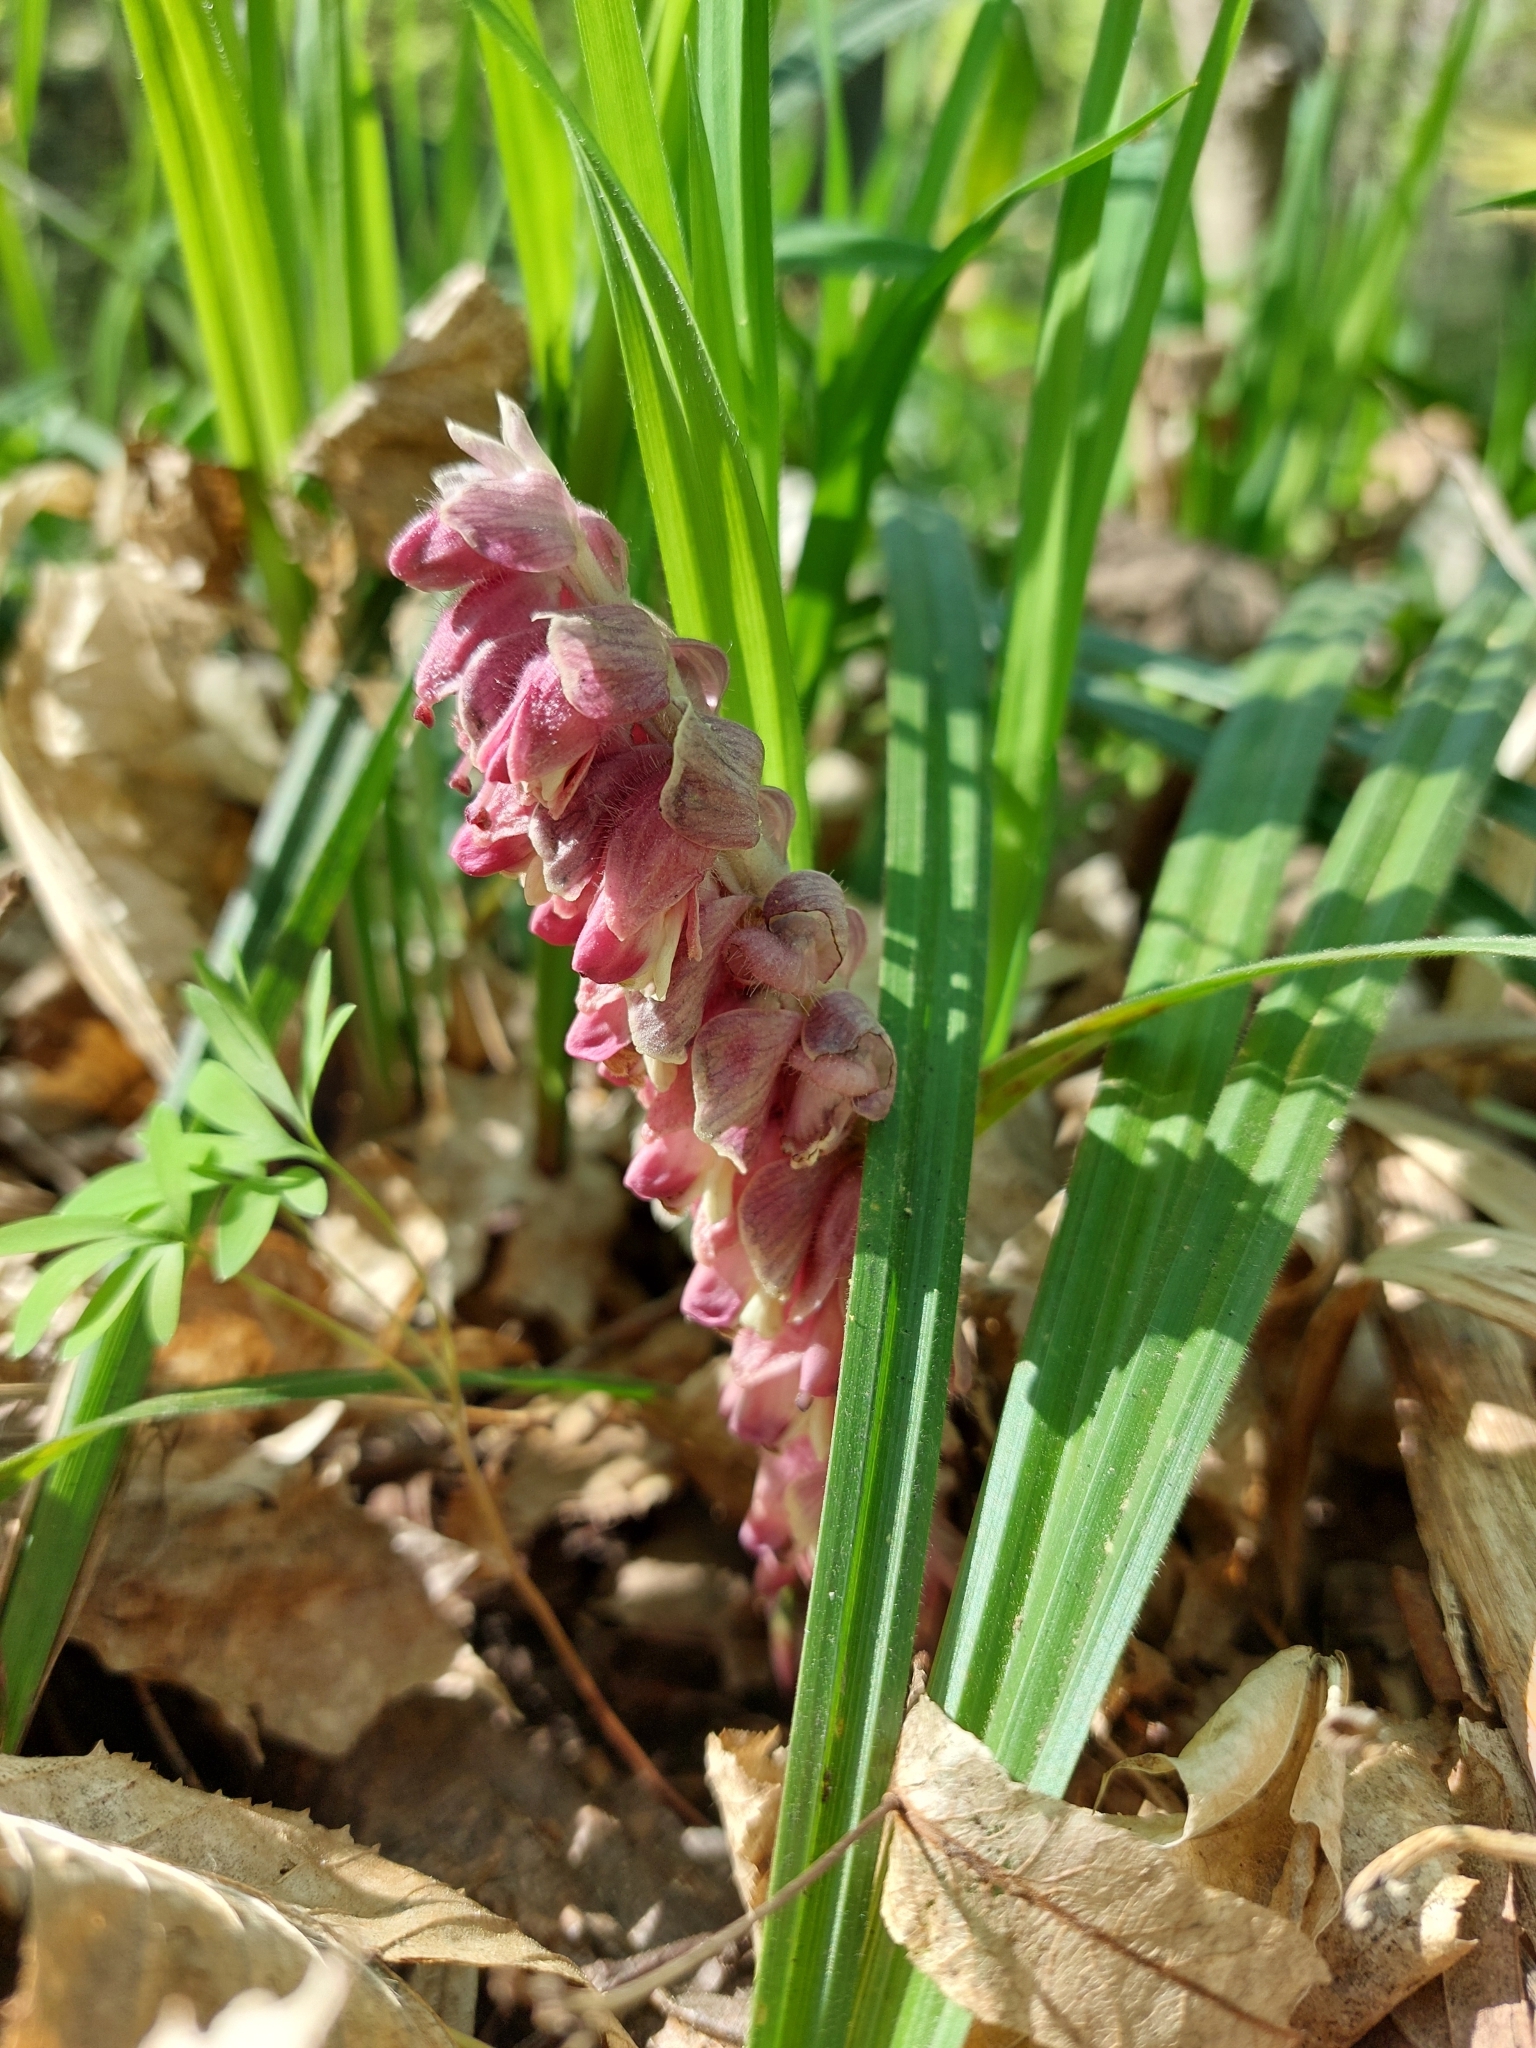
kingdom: Plantae
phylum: Tracheophyta
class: Magnoliopsida
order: Lamiales
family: Orobanchaceae
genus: Lathraea
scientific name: Lathraea squamaria
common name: Toothwort
